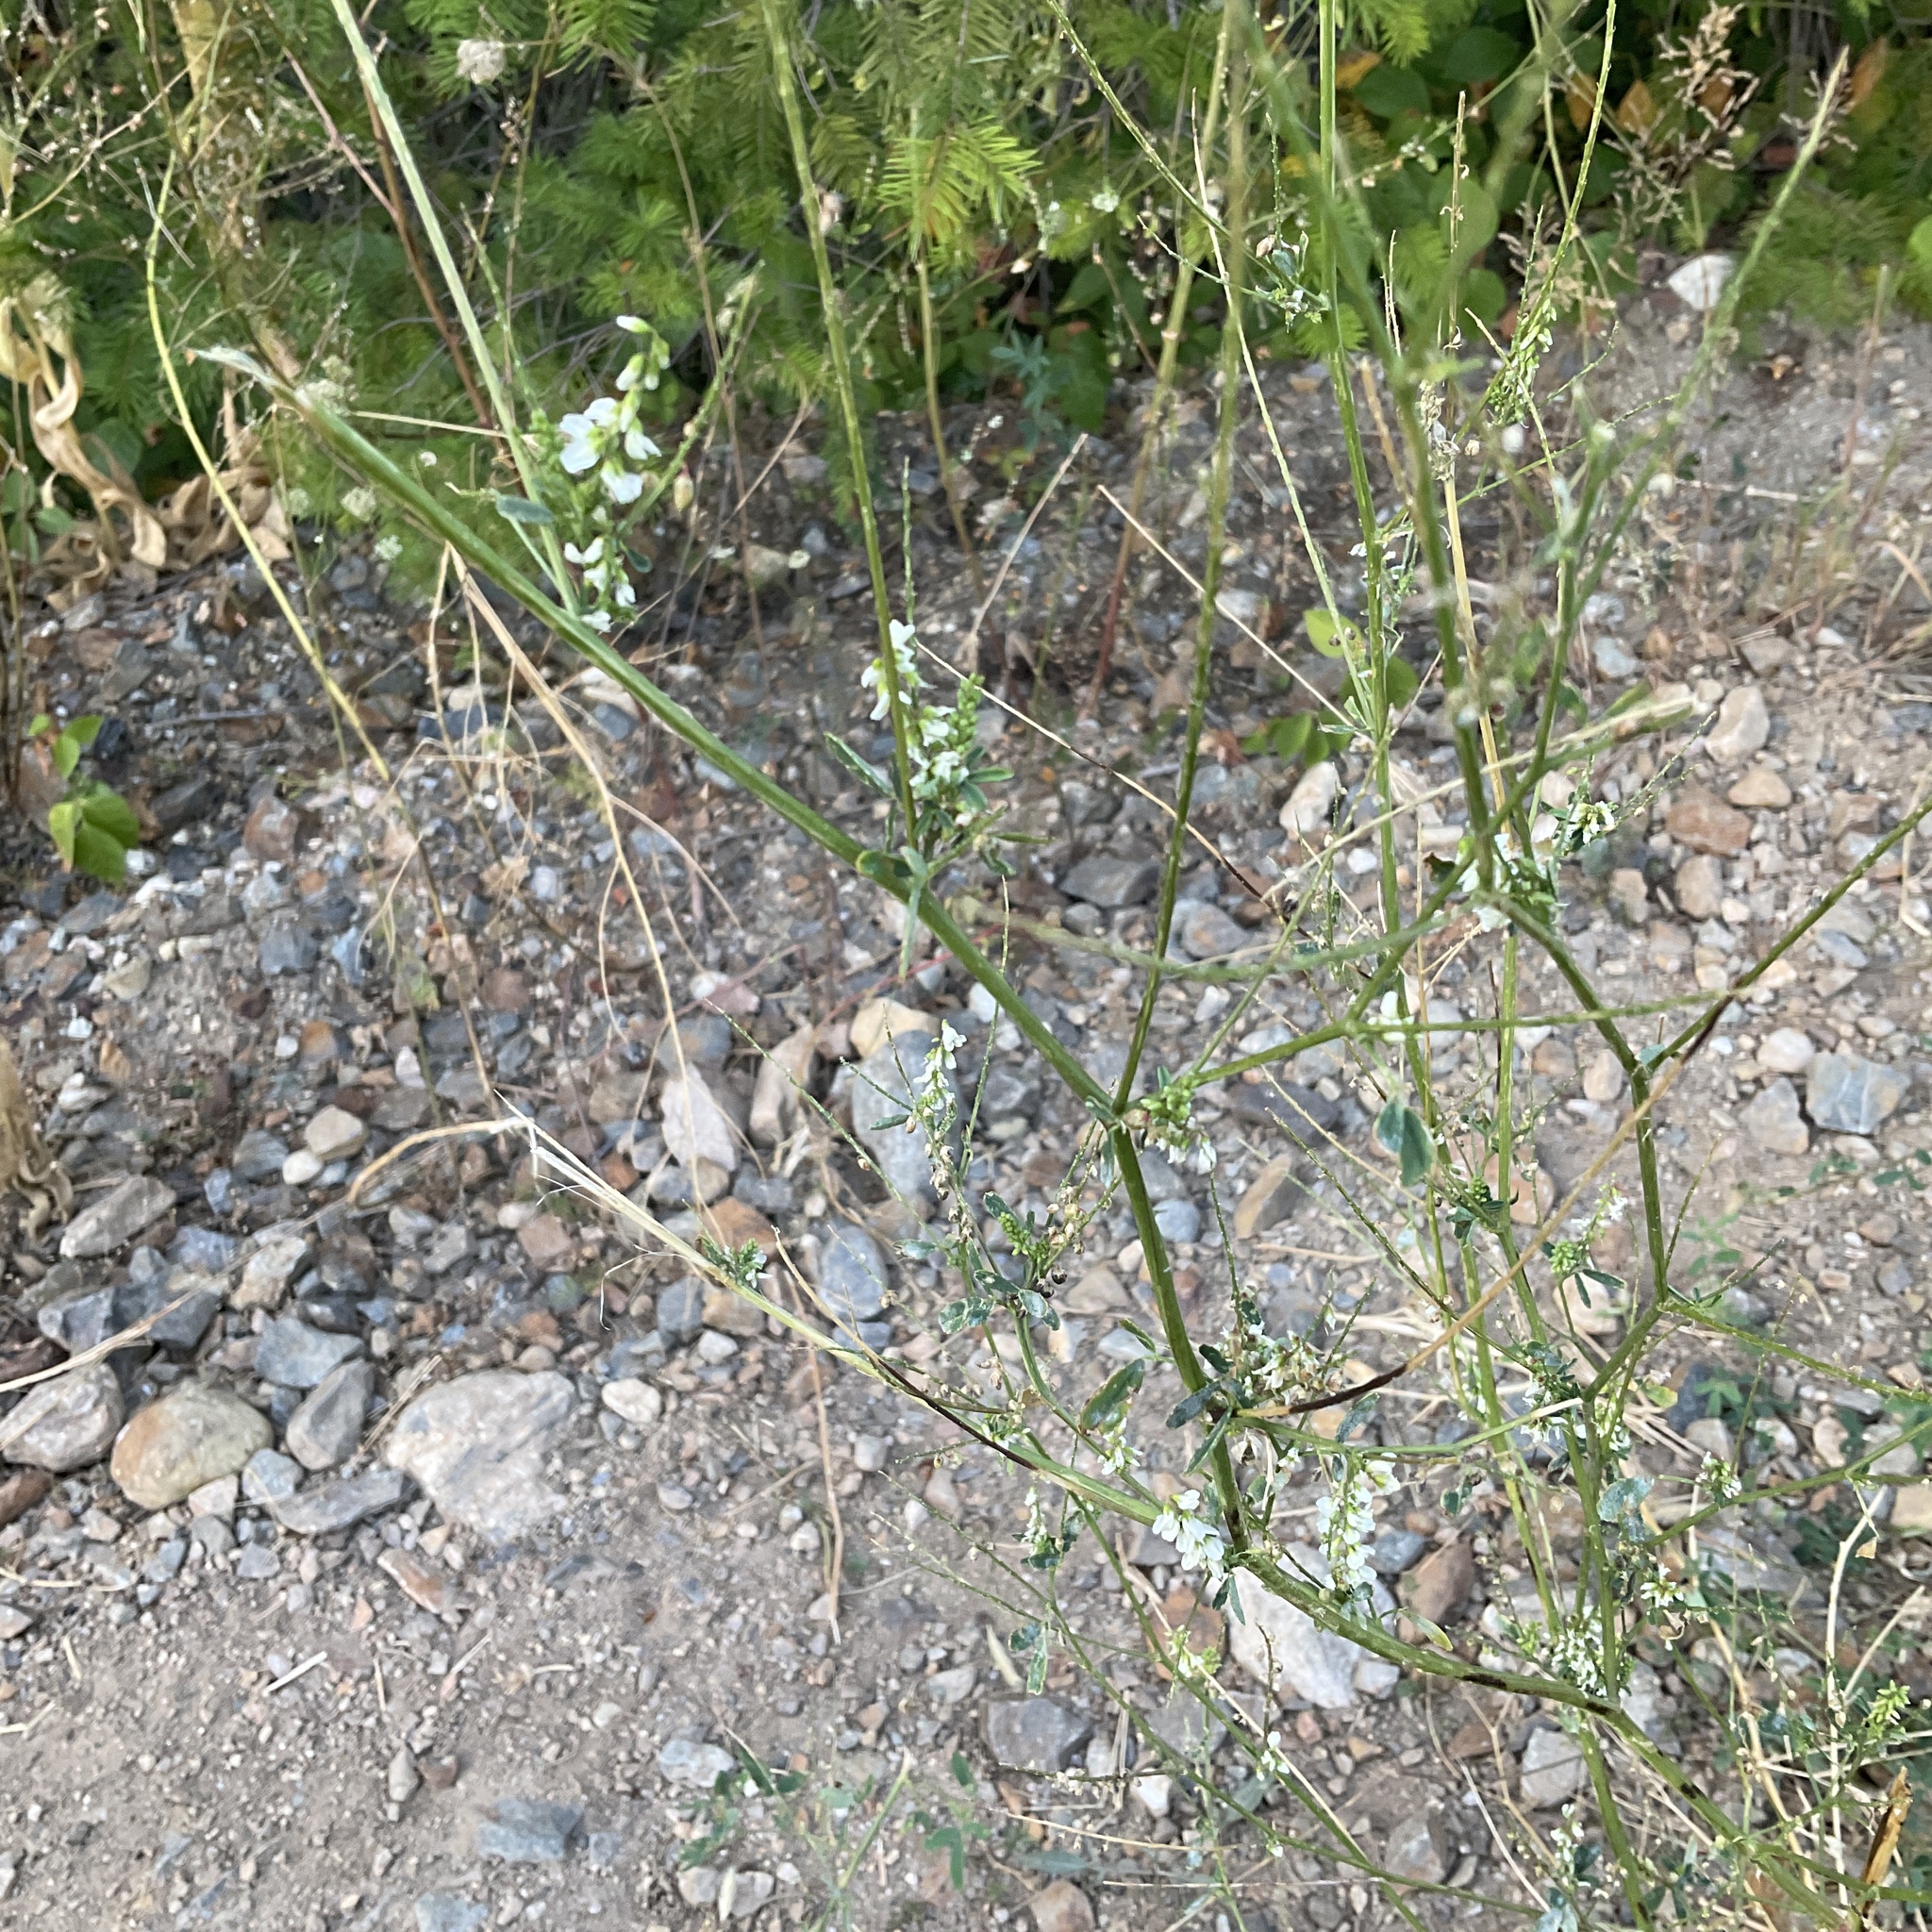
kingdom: Plantae
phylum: Tracheophyta
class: Magnoliopsida
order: Fabales
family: Fabaceae
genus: Melilotus
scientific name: Melilotus albus
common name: White melilot
